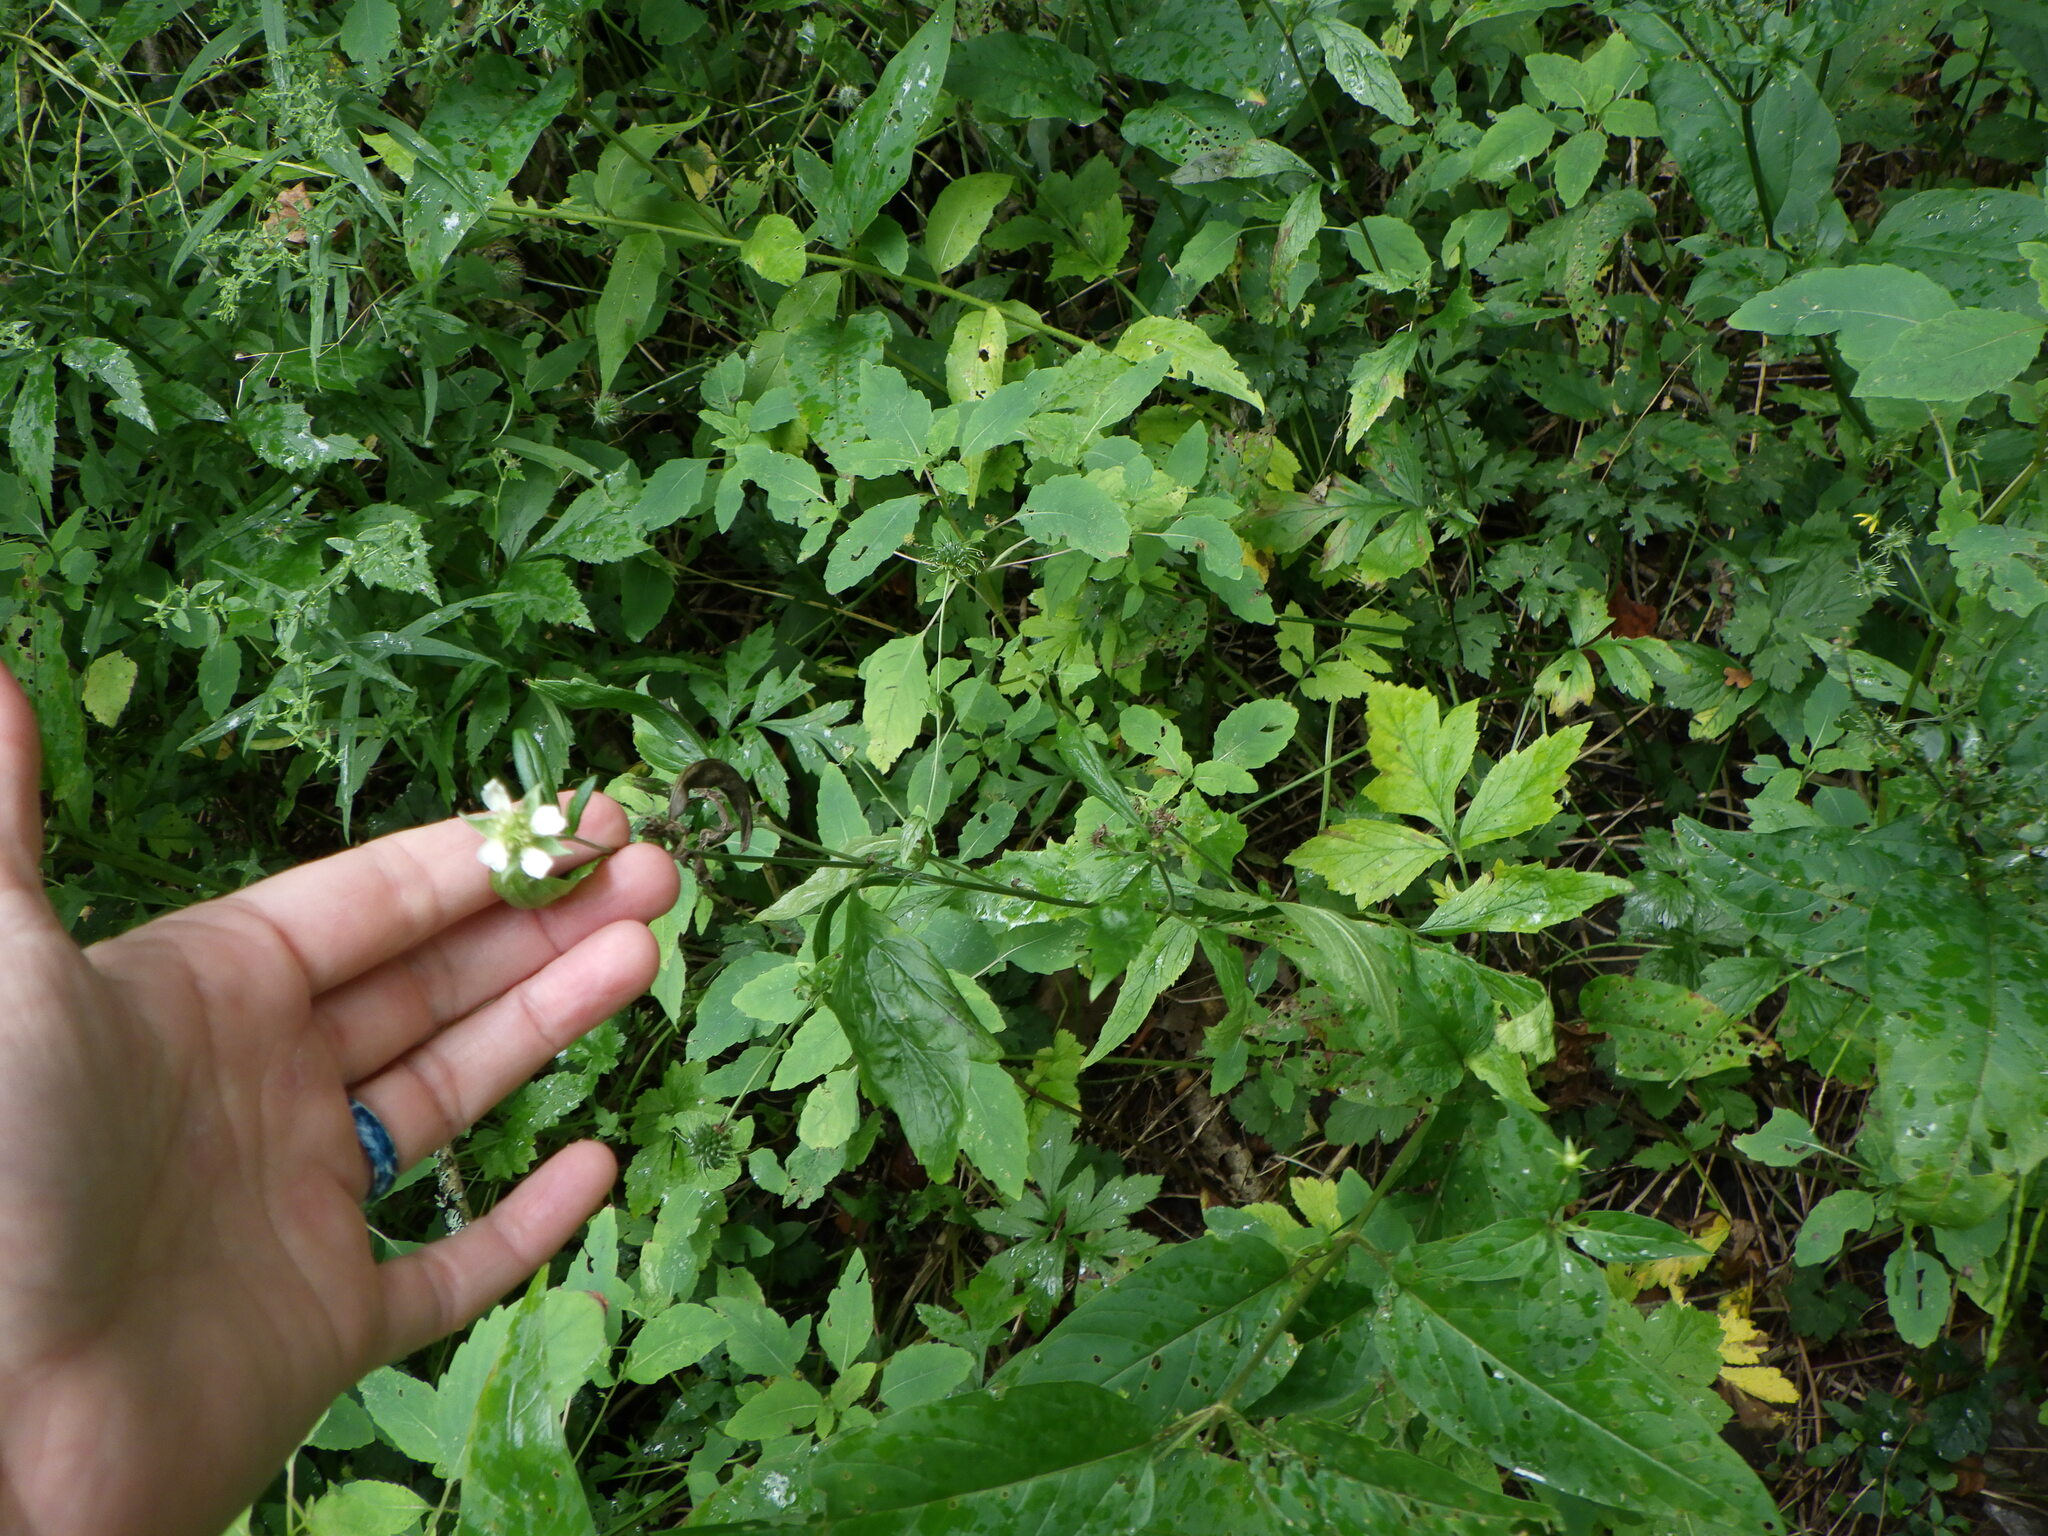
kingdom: Plantae
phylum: Tracheophyta
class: Magnoliopsida
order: Rosales
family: Rosaceae
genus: Geum
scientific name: Geum canadense
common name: White avens
